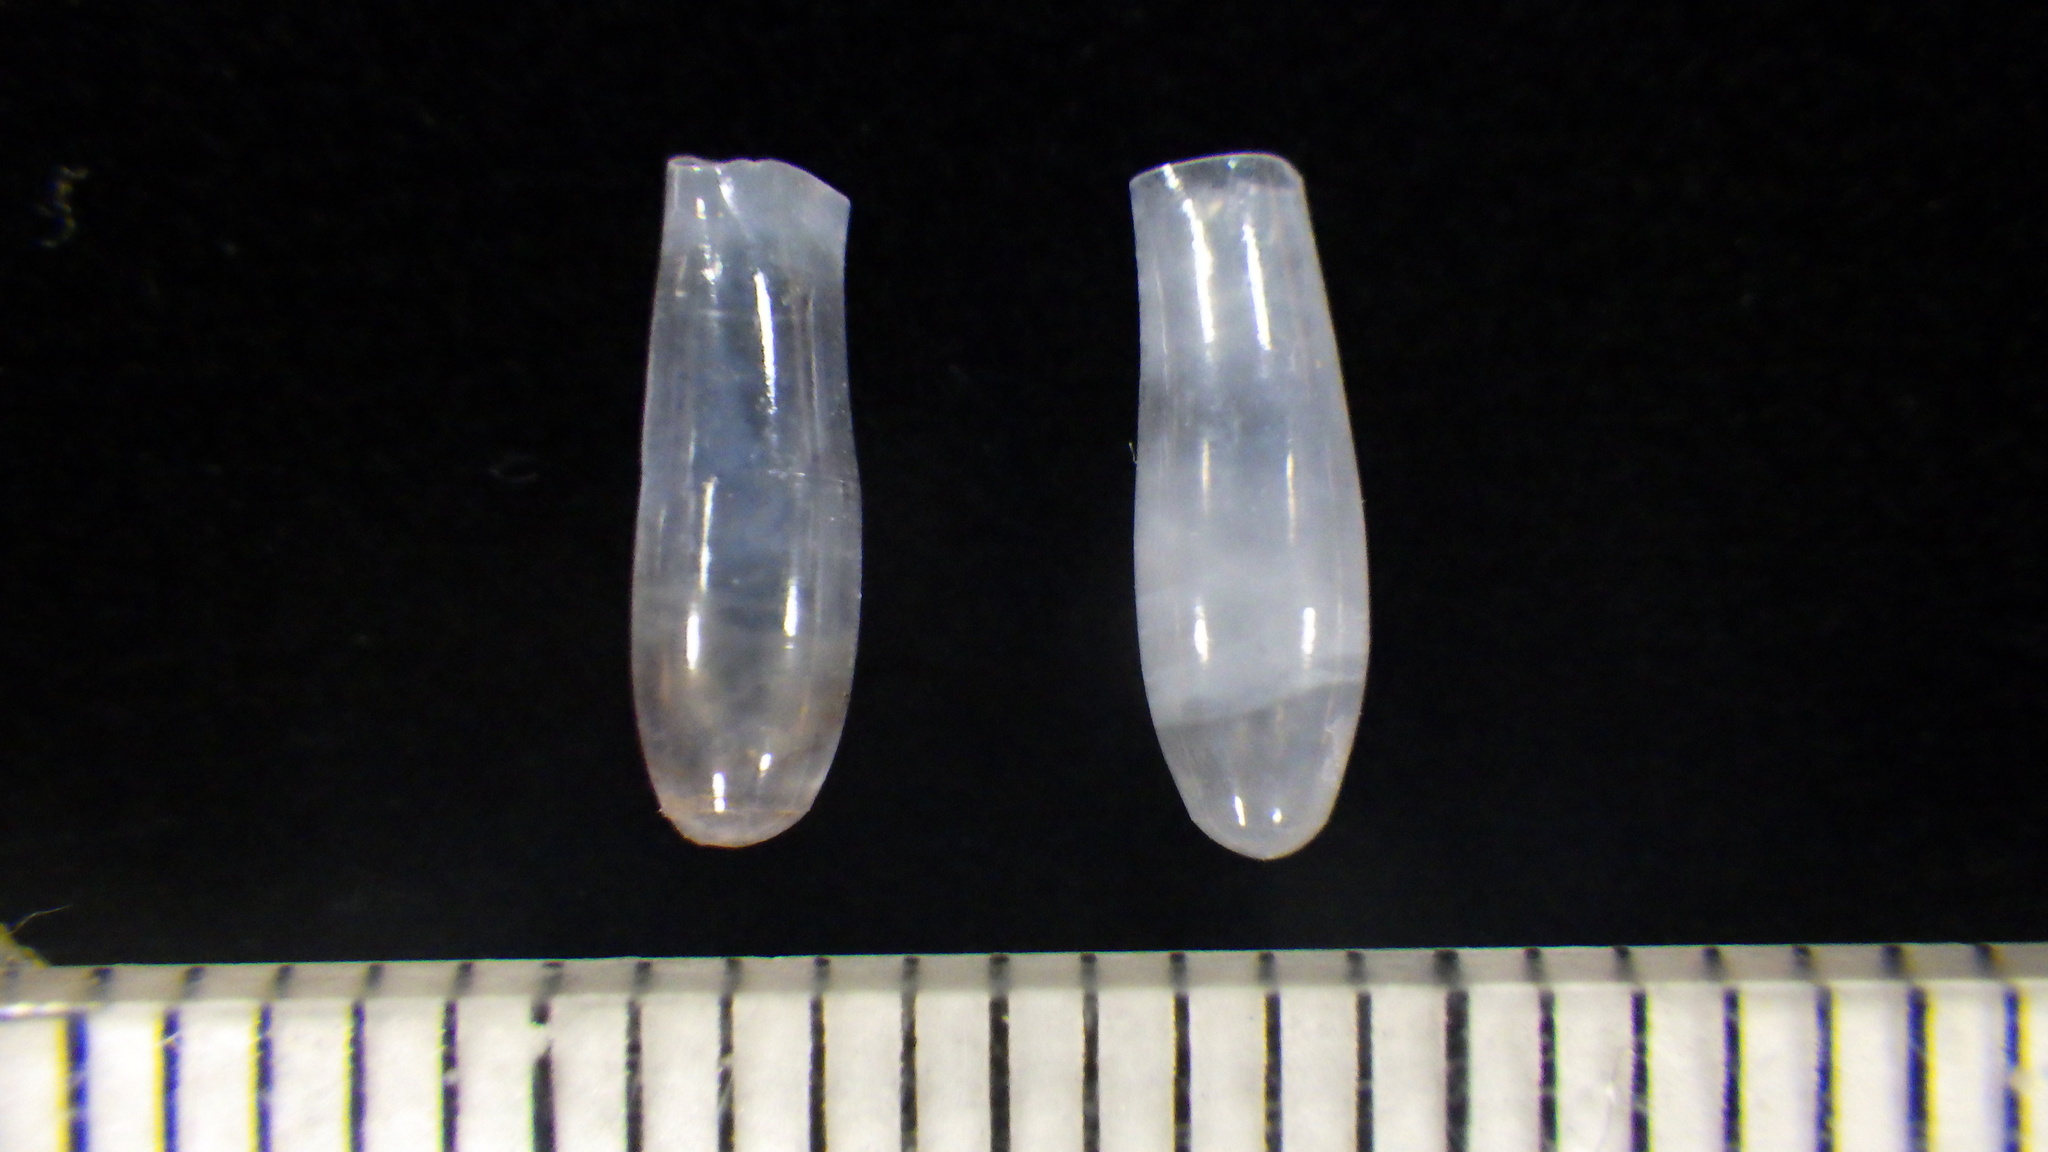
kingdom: Animalia
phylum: Mollusca
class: Gastropoda
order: Pteropoda
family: Cavoliniidae
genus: Cuvierina
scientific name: Cuvierina columnella
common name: Cigar pteropod
